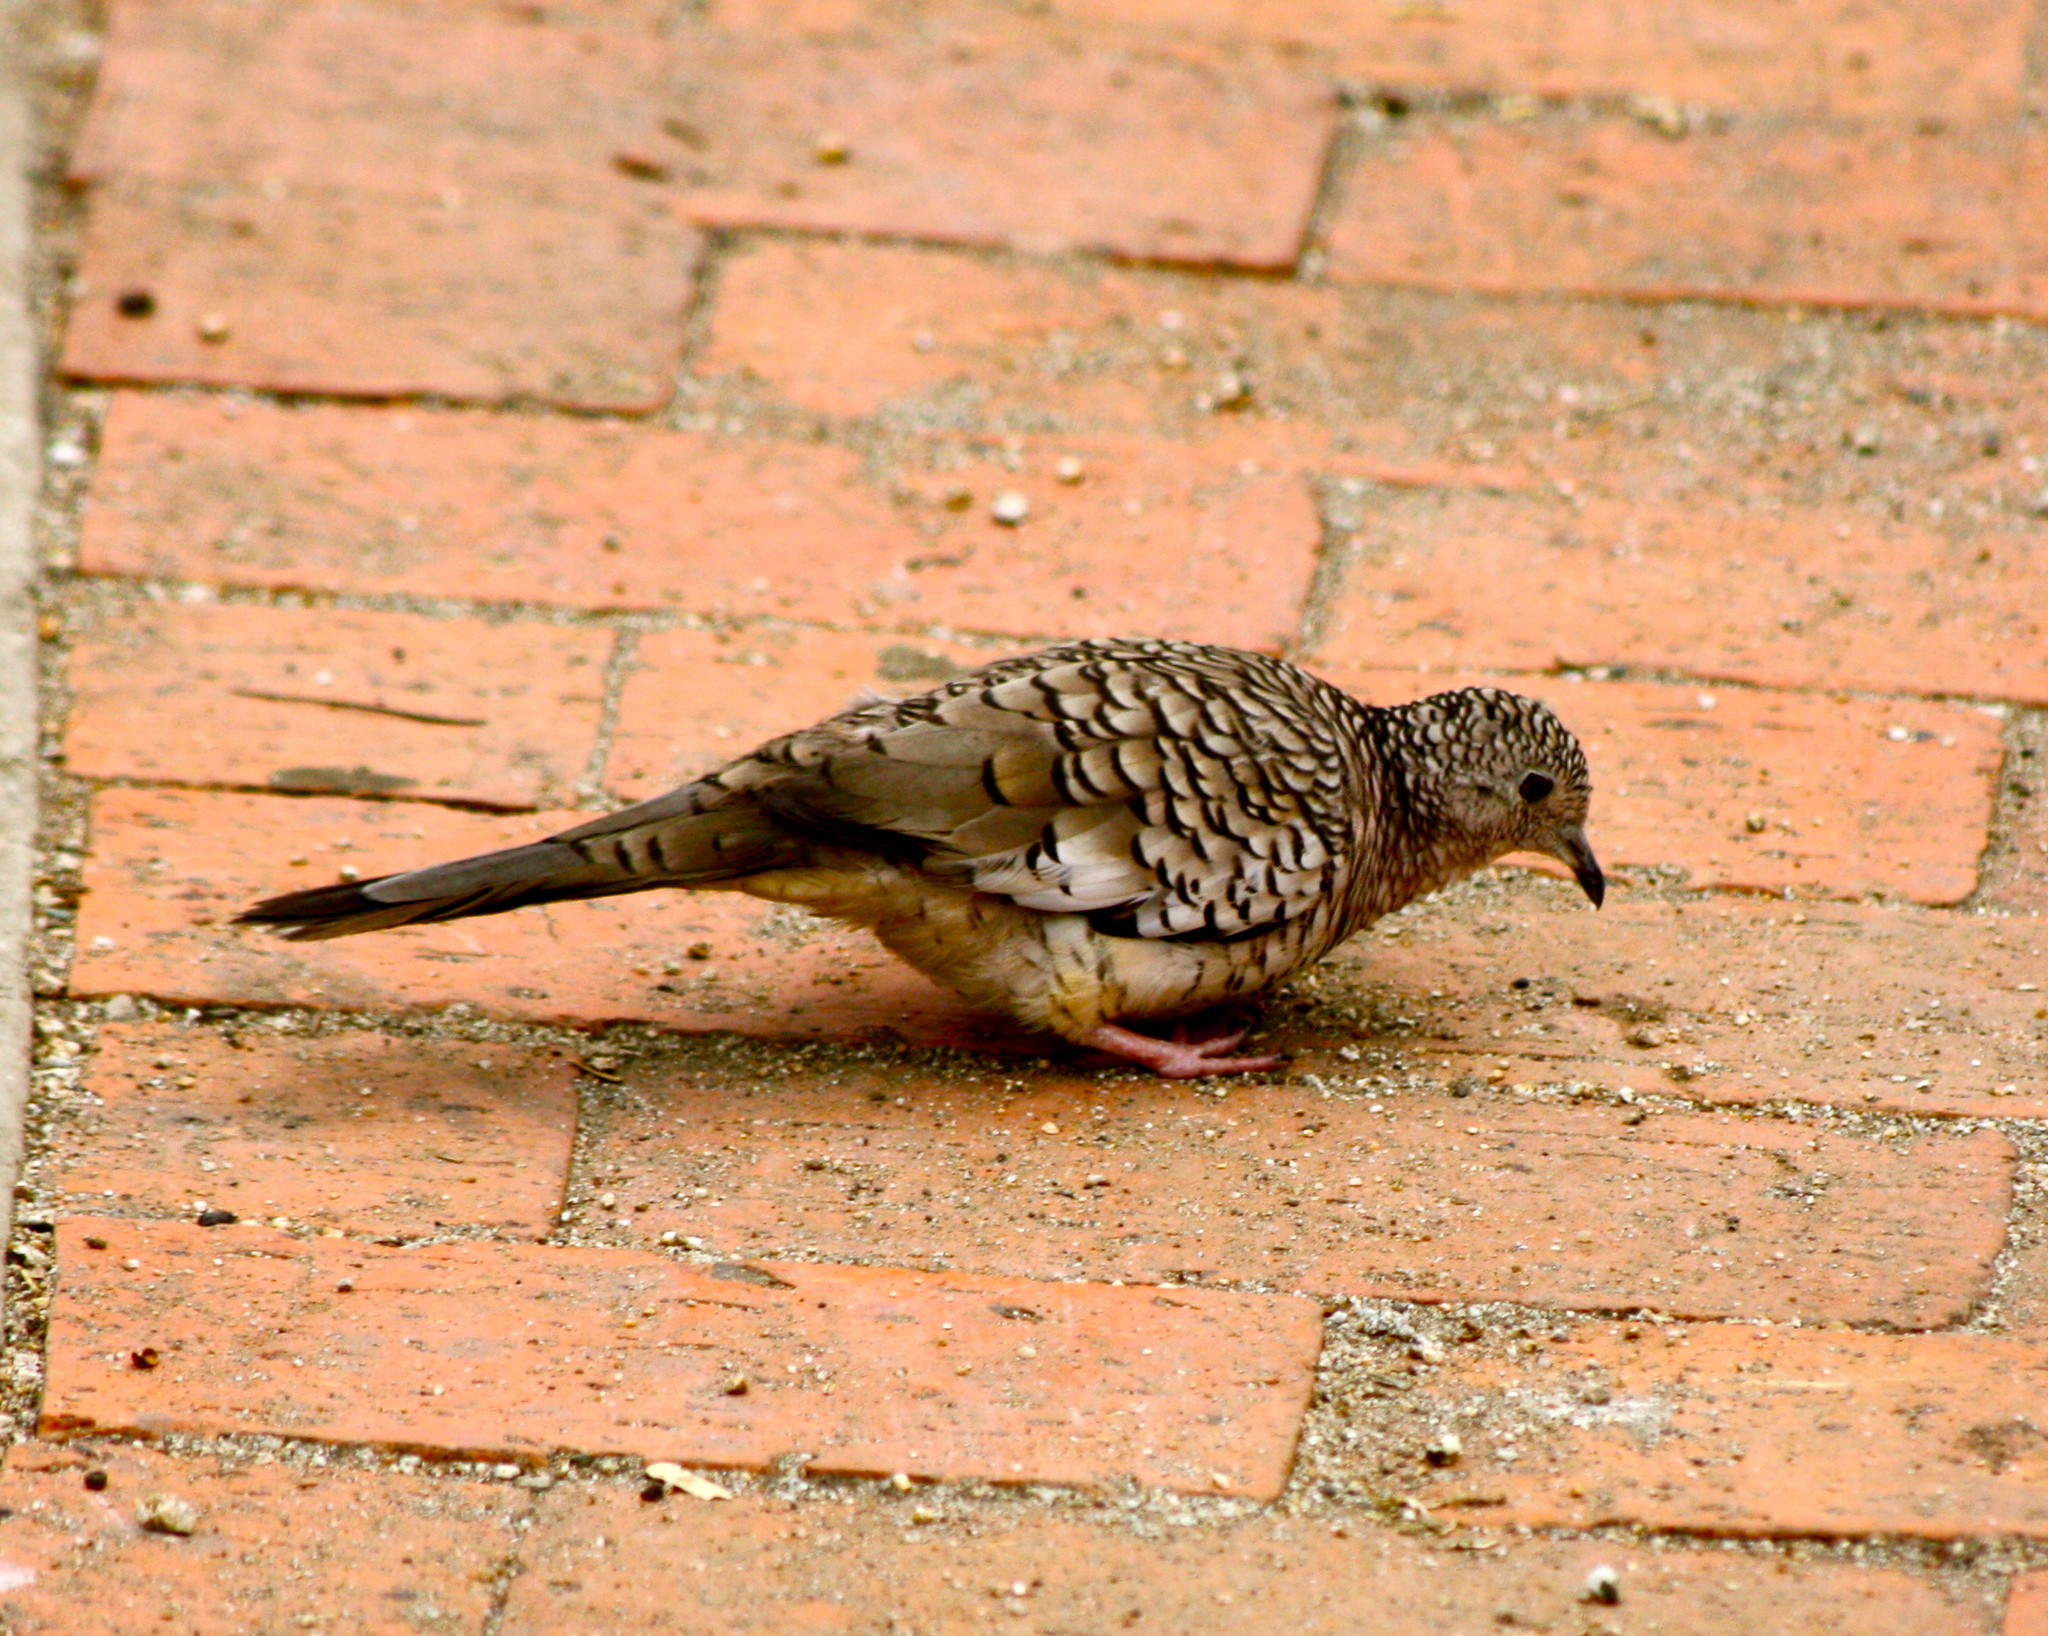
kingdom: Animalia
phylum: Chordata
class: Aves
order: Columbiformes
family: Columbidae
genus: Columbina
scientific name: Columbina squammata
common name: Scaled dove
